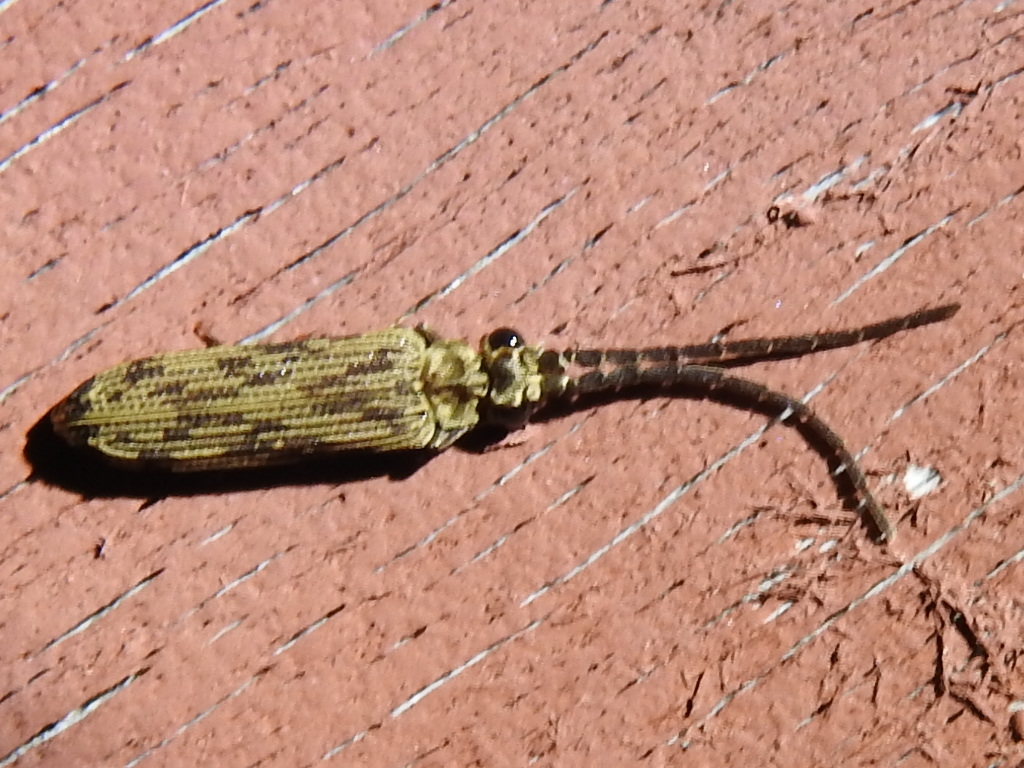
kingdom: Animalia
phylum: Arthropoda
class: Insecta
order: Coleoptera
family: Cupedidae
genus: Tenomerga
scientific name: Tenomerga cinerea
